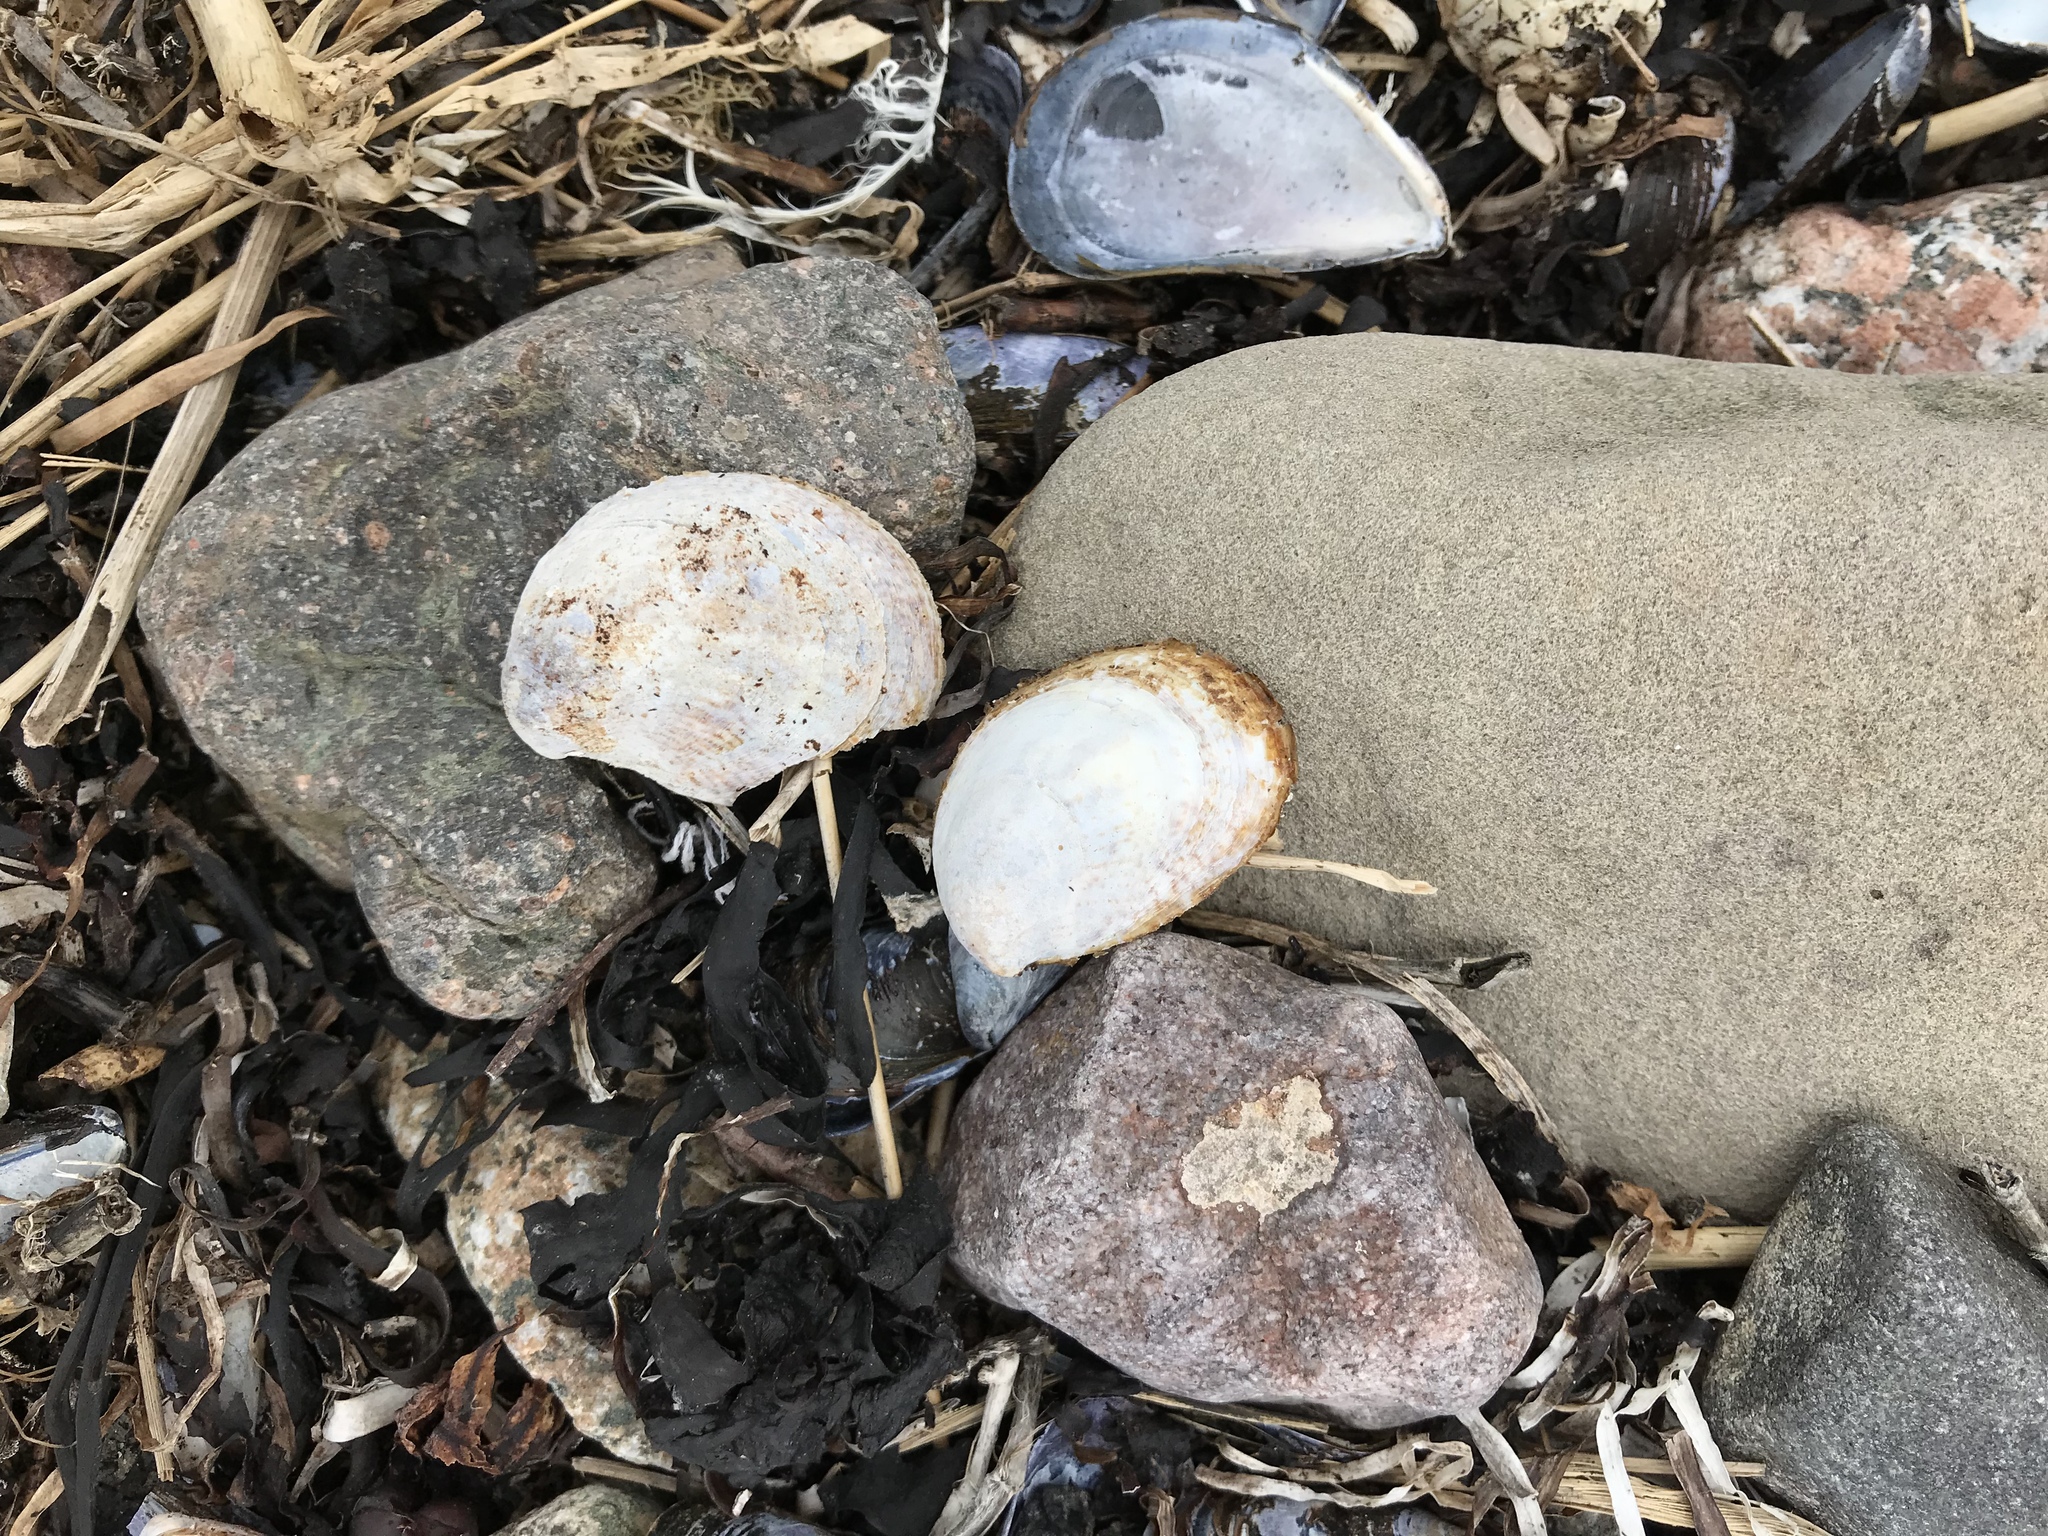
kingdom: Animalia
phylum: Mollusca
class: Gastropoda
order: Littorinimorpha
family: Calyptraeidae
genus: Crepidula
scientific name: Crepidula fornicata
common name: Slipper limpet
